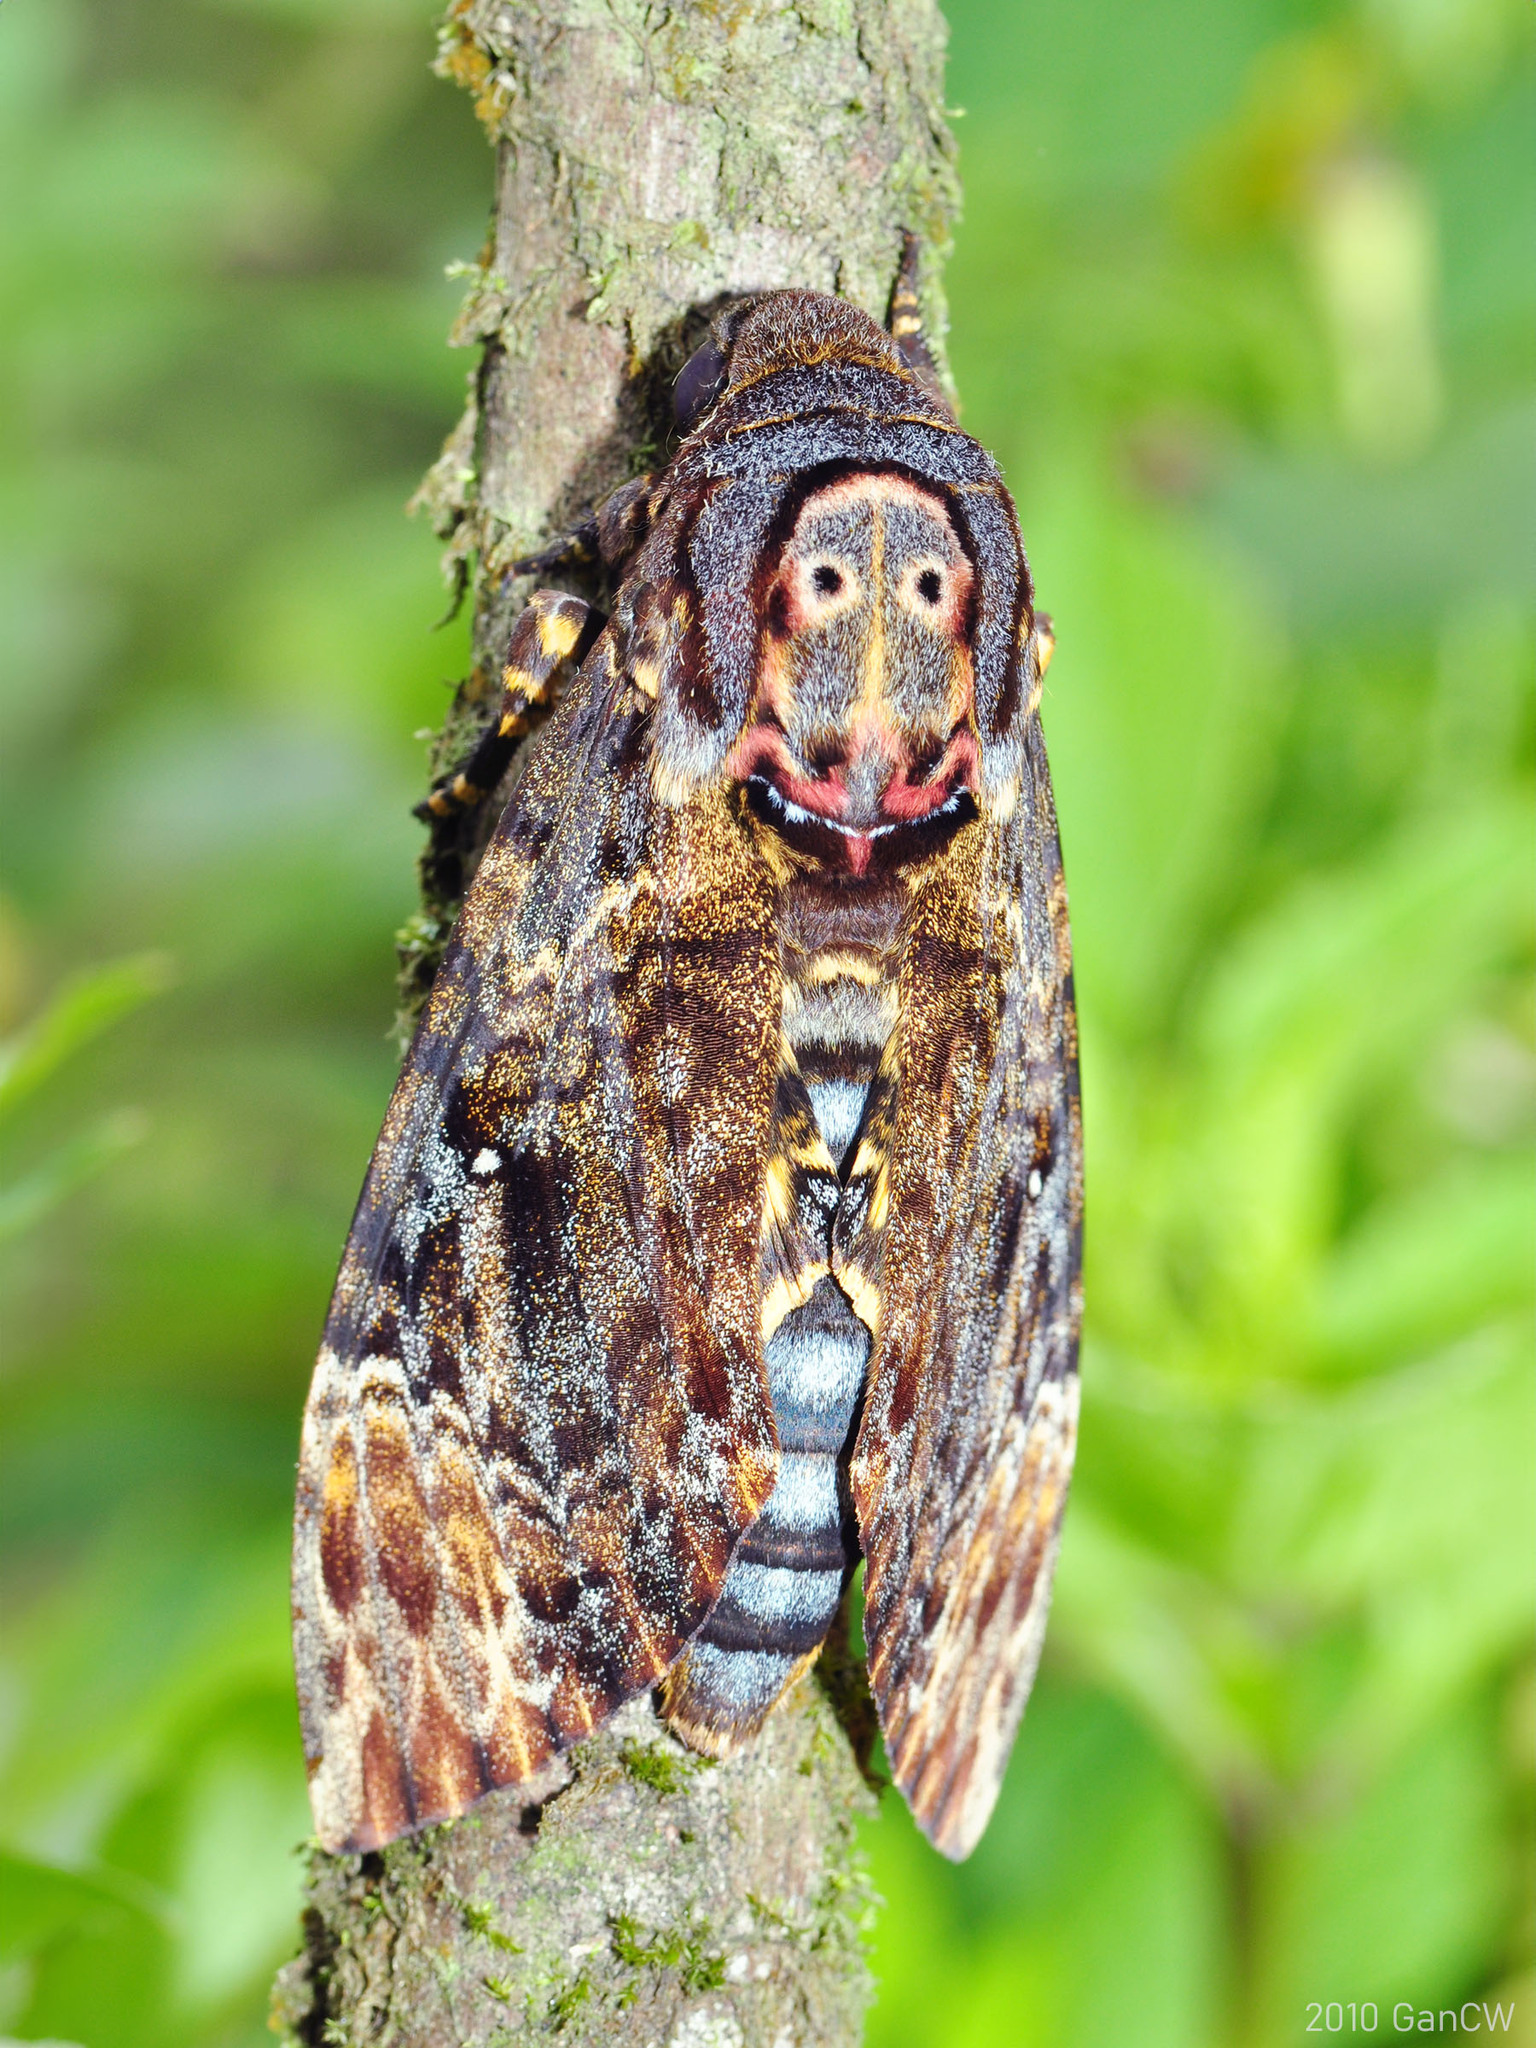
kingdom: Animalia
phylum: Arthropoda
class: Insecta
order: Lepidoptera
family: Sphingidae
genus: Acherontia
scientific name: Acherontia lachesis
